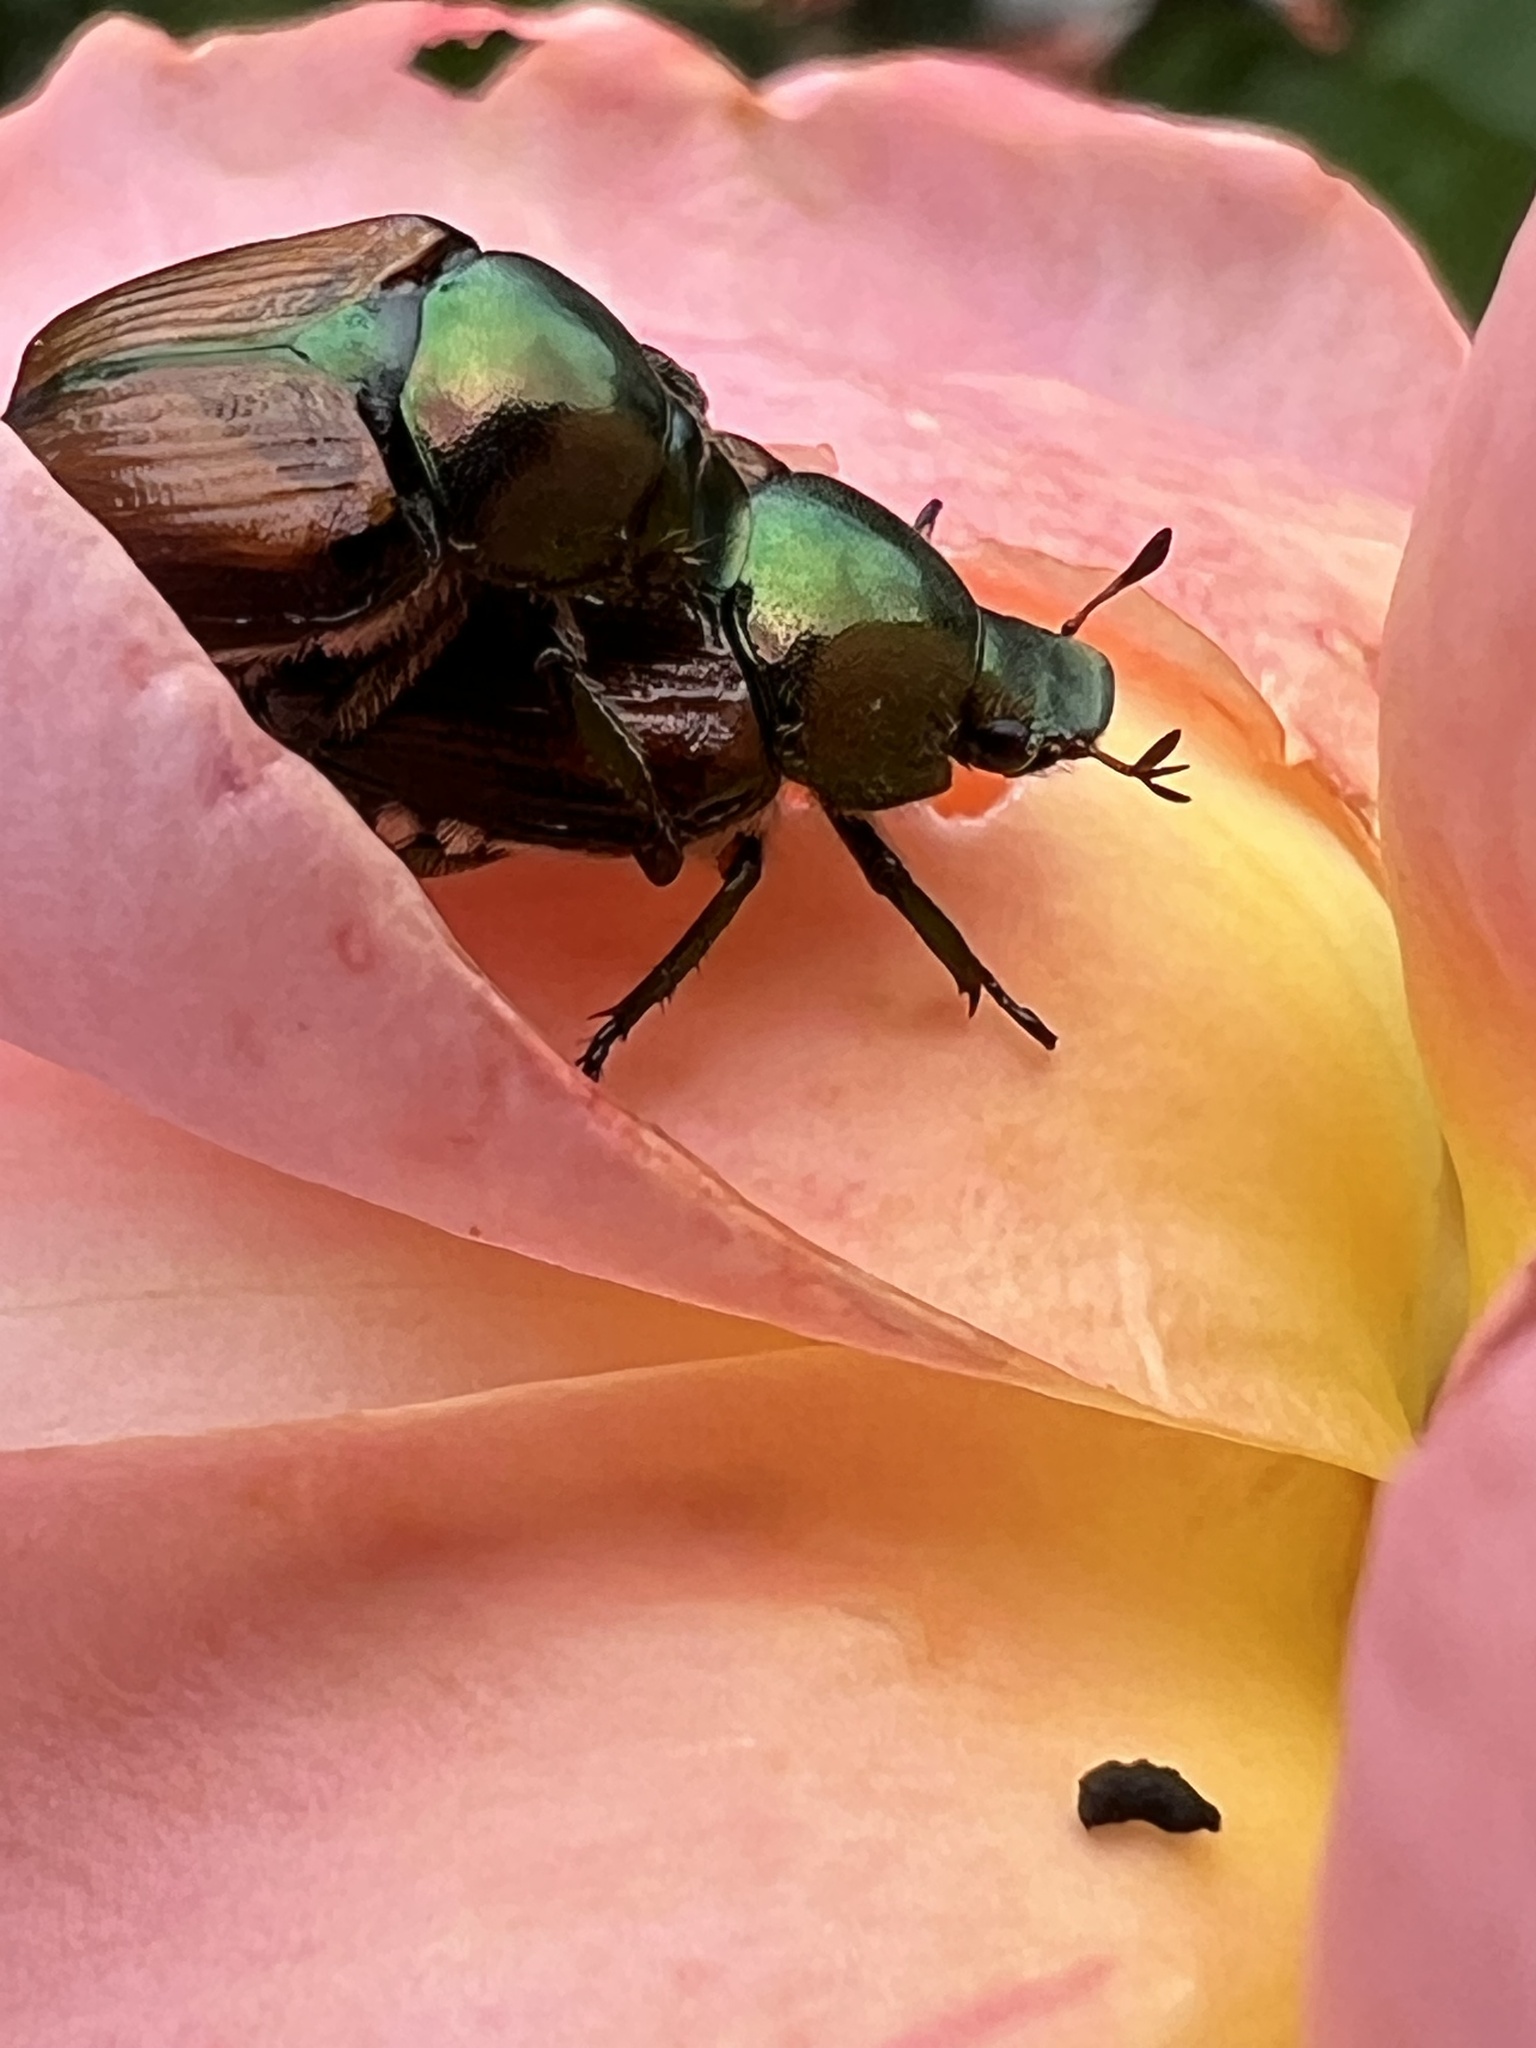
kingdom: Animalia
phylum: Arthropoda
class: Insecta
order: Coleoptera
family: Scarabaeidae
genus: Popillia
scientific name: Popillia japonica
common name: Japanese beetle
